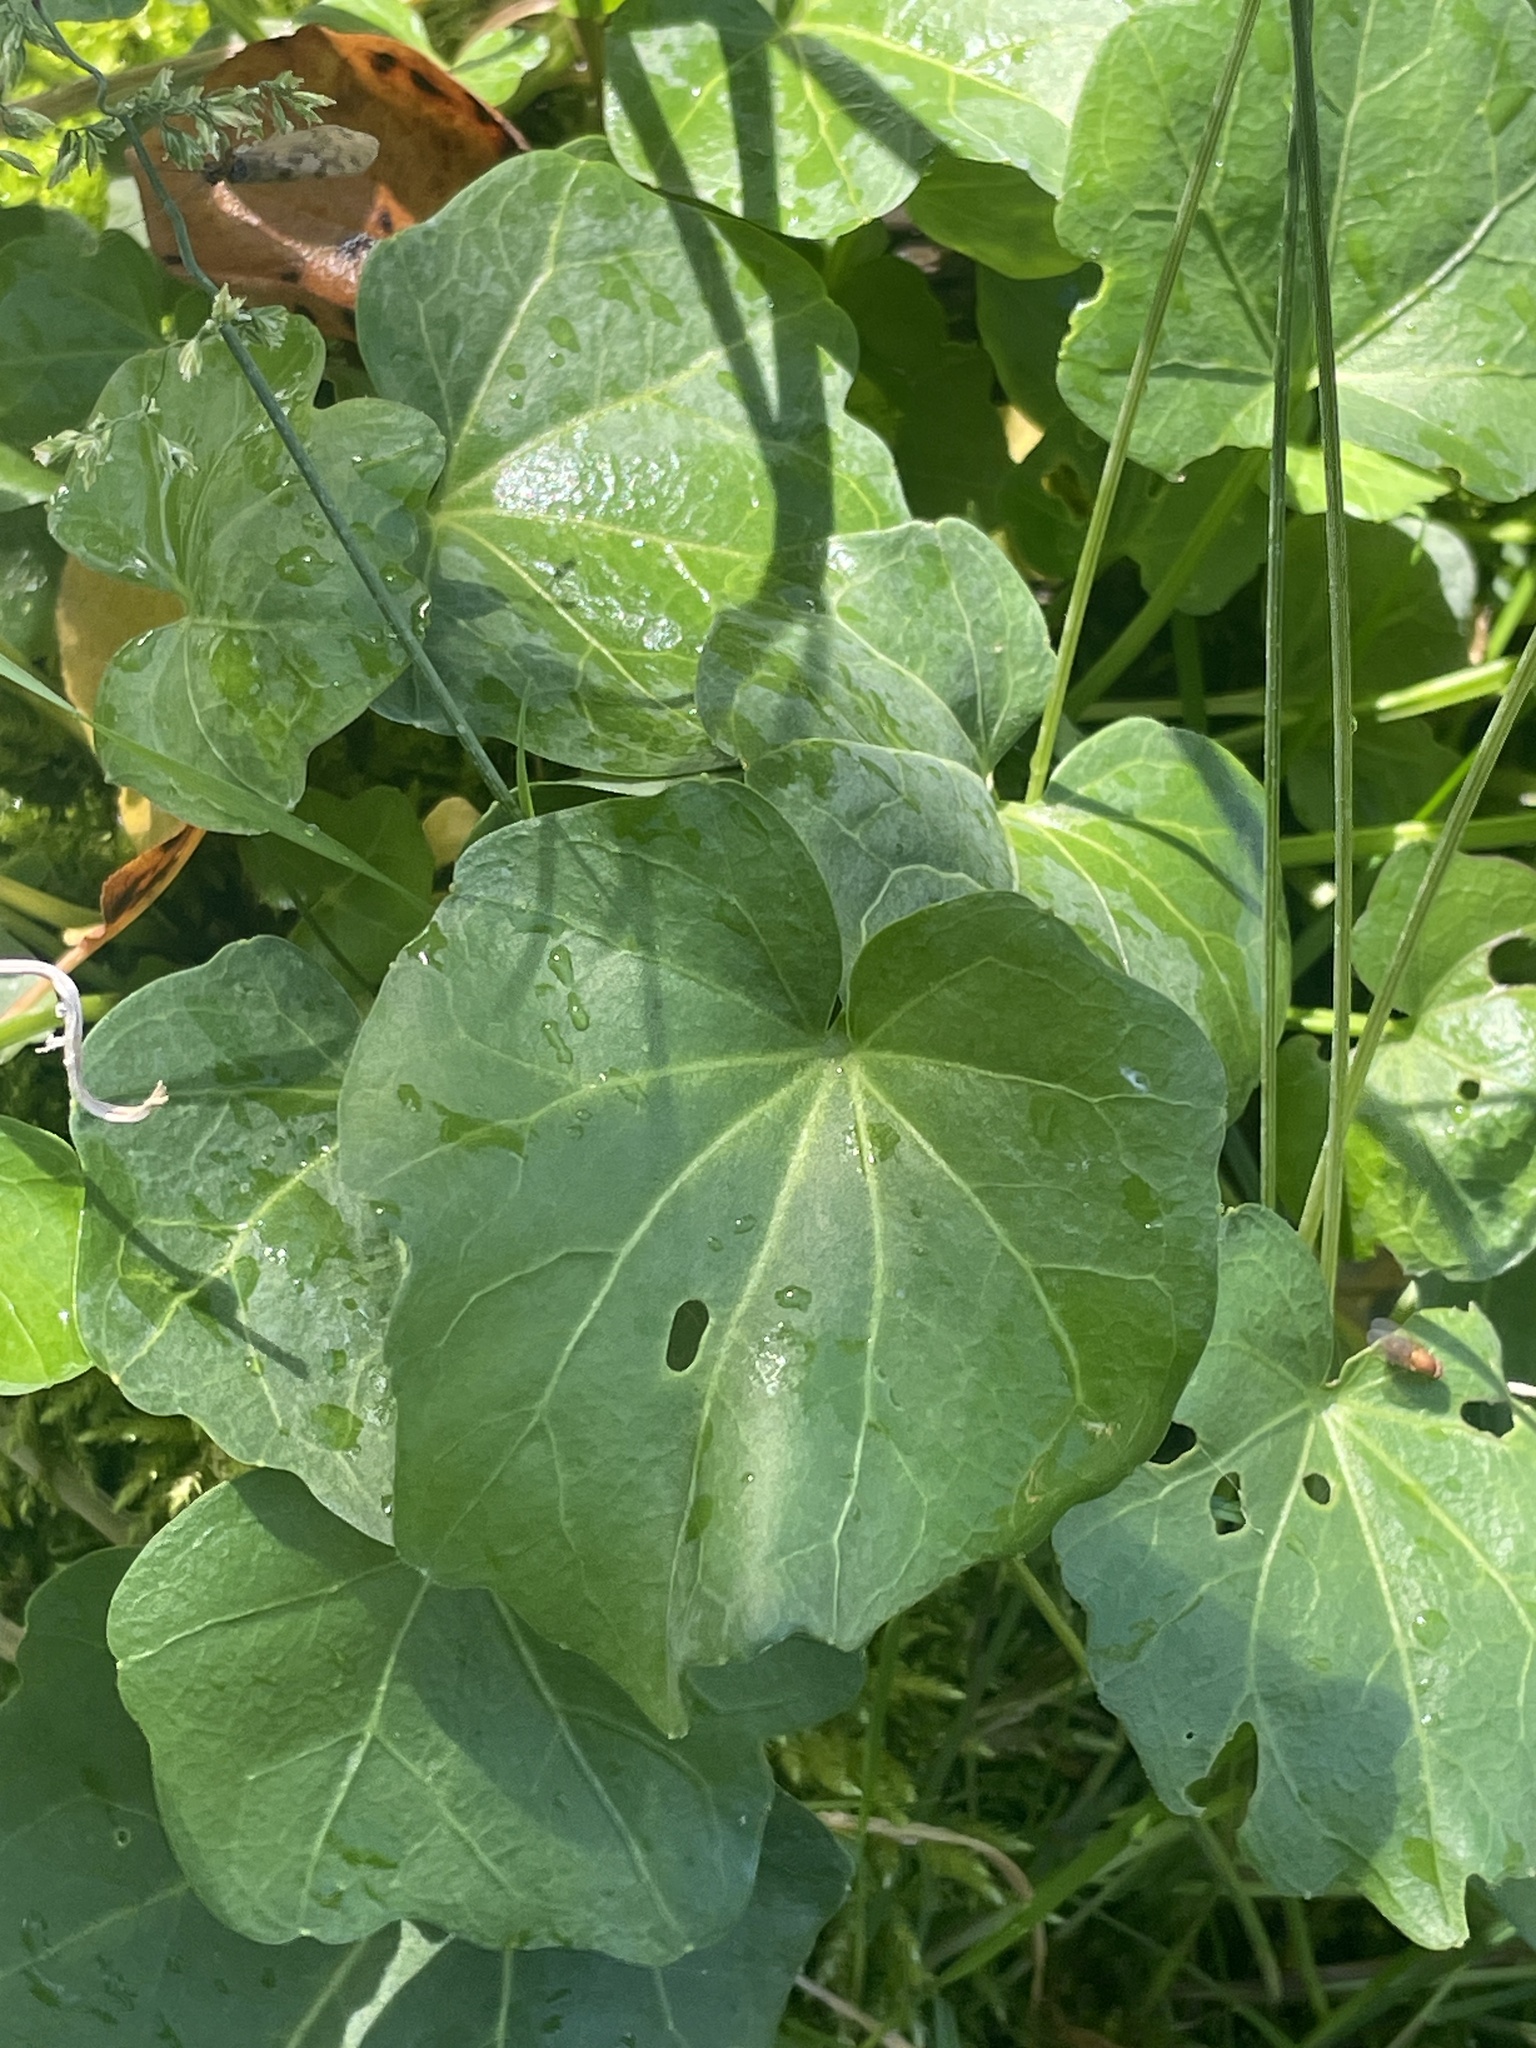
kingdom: Plantae
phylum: Tracheophyta
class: Magnoliopsida
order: Brassicales
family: Brassicaceae
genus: Cardamine
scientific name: Cardamine cordifolia
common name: Heart-leaf bittercress
